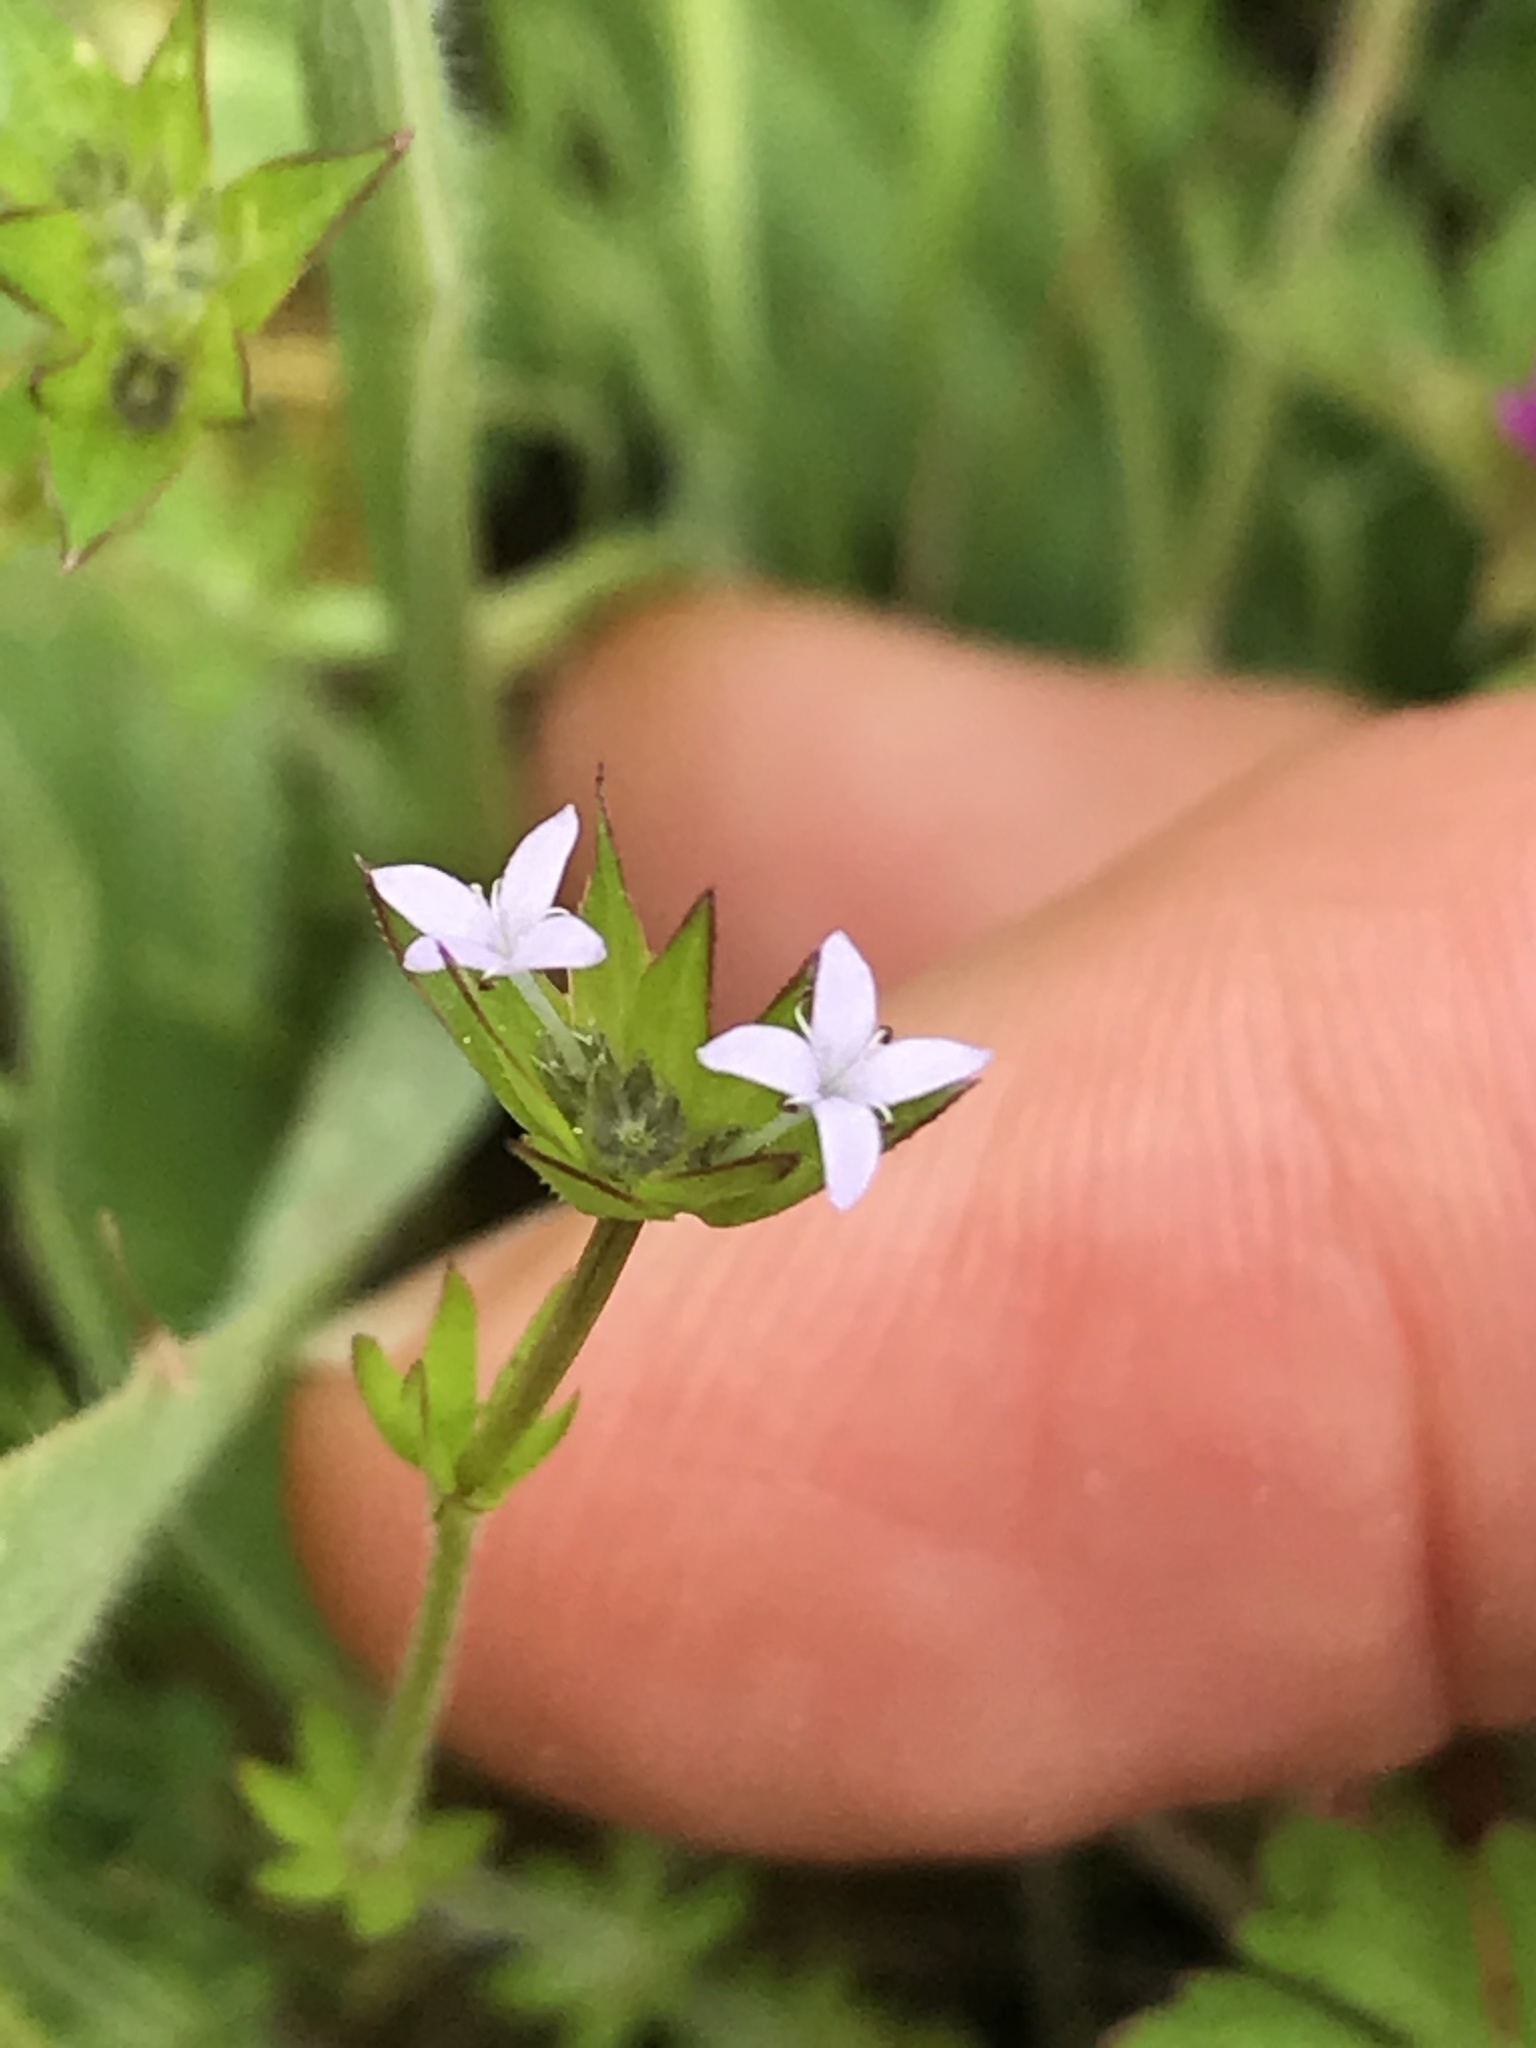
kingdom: Plantae
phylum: Tracheophyta
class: Magnoliopsida
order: Gentianales
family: Rubiaceae
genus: Sherardia
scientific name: Sherardia arvensis
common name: Field madder
